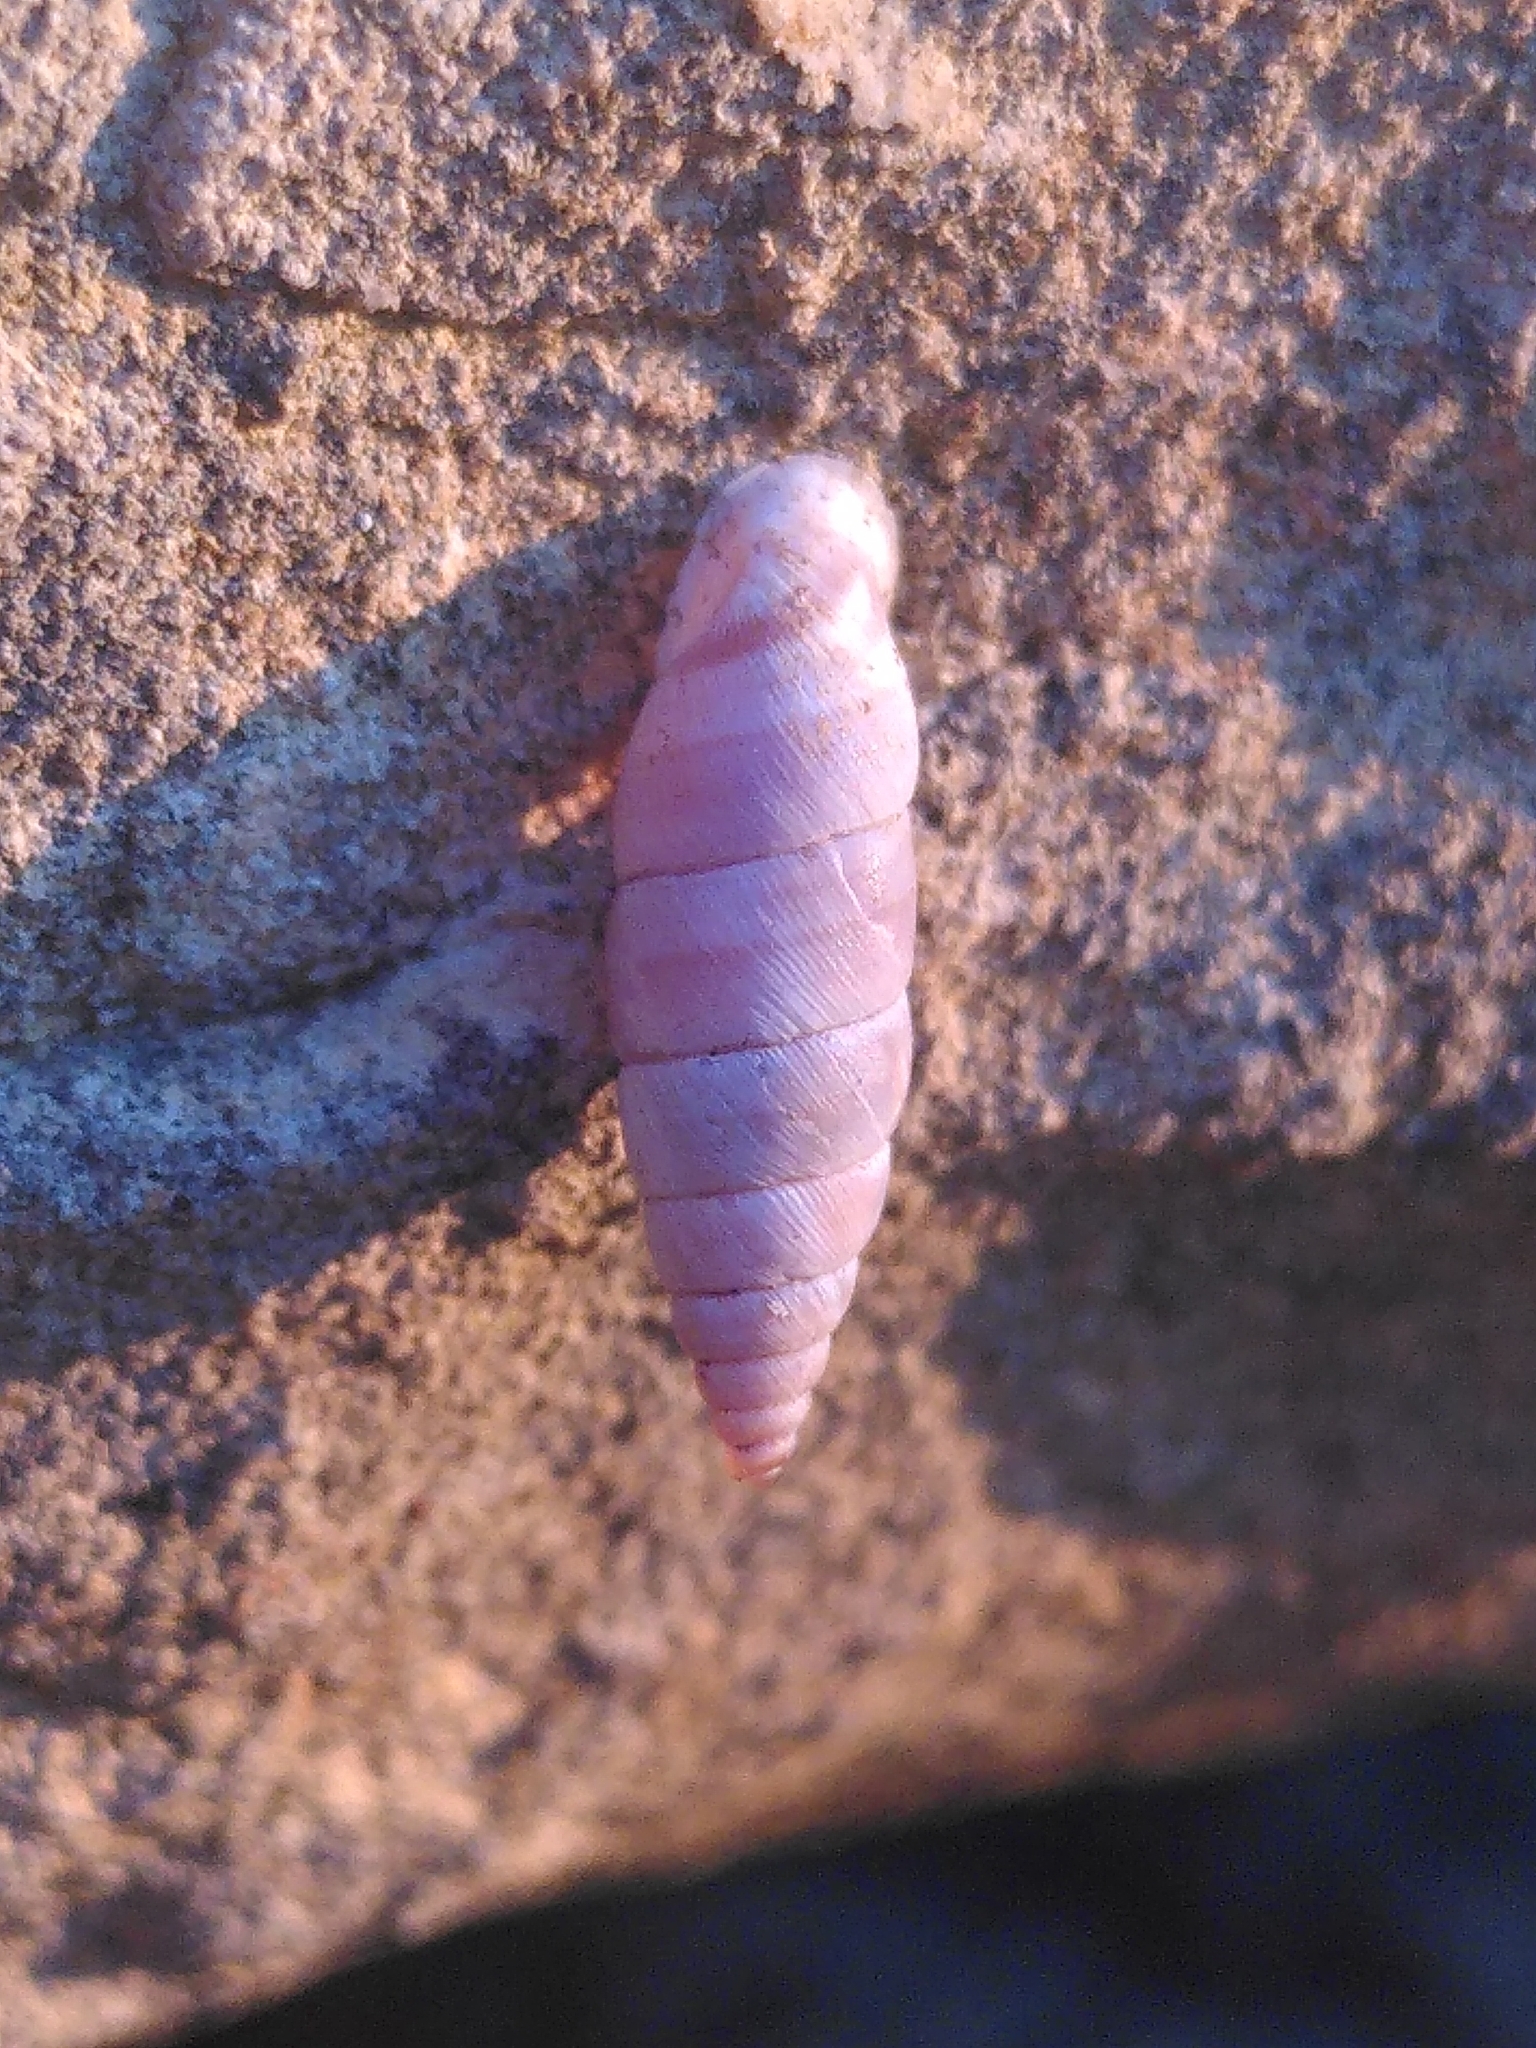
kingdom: Animalia
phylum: Mollusca
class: Gastropoda
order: Stylommatophora
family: Chondrinidae
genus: Solatopupa
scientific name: Solatopupa similis
